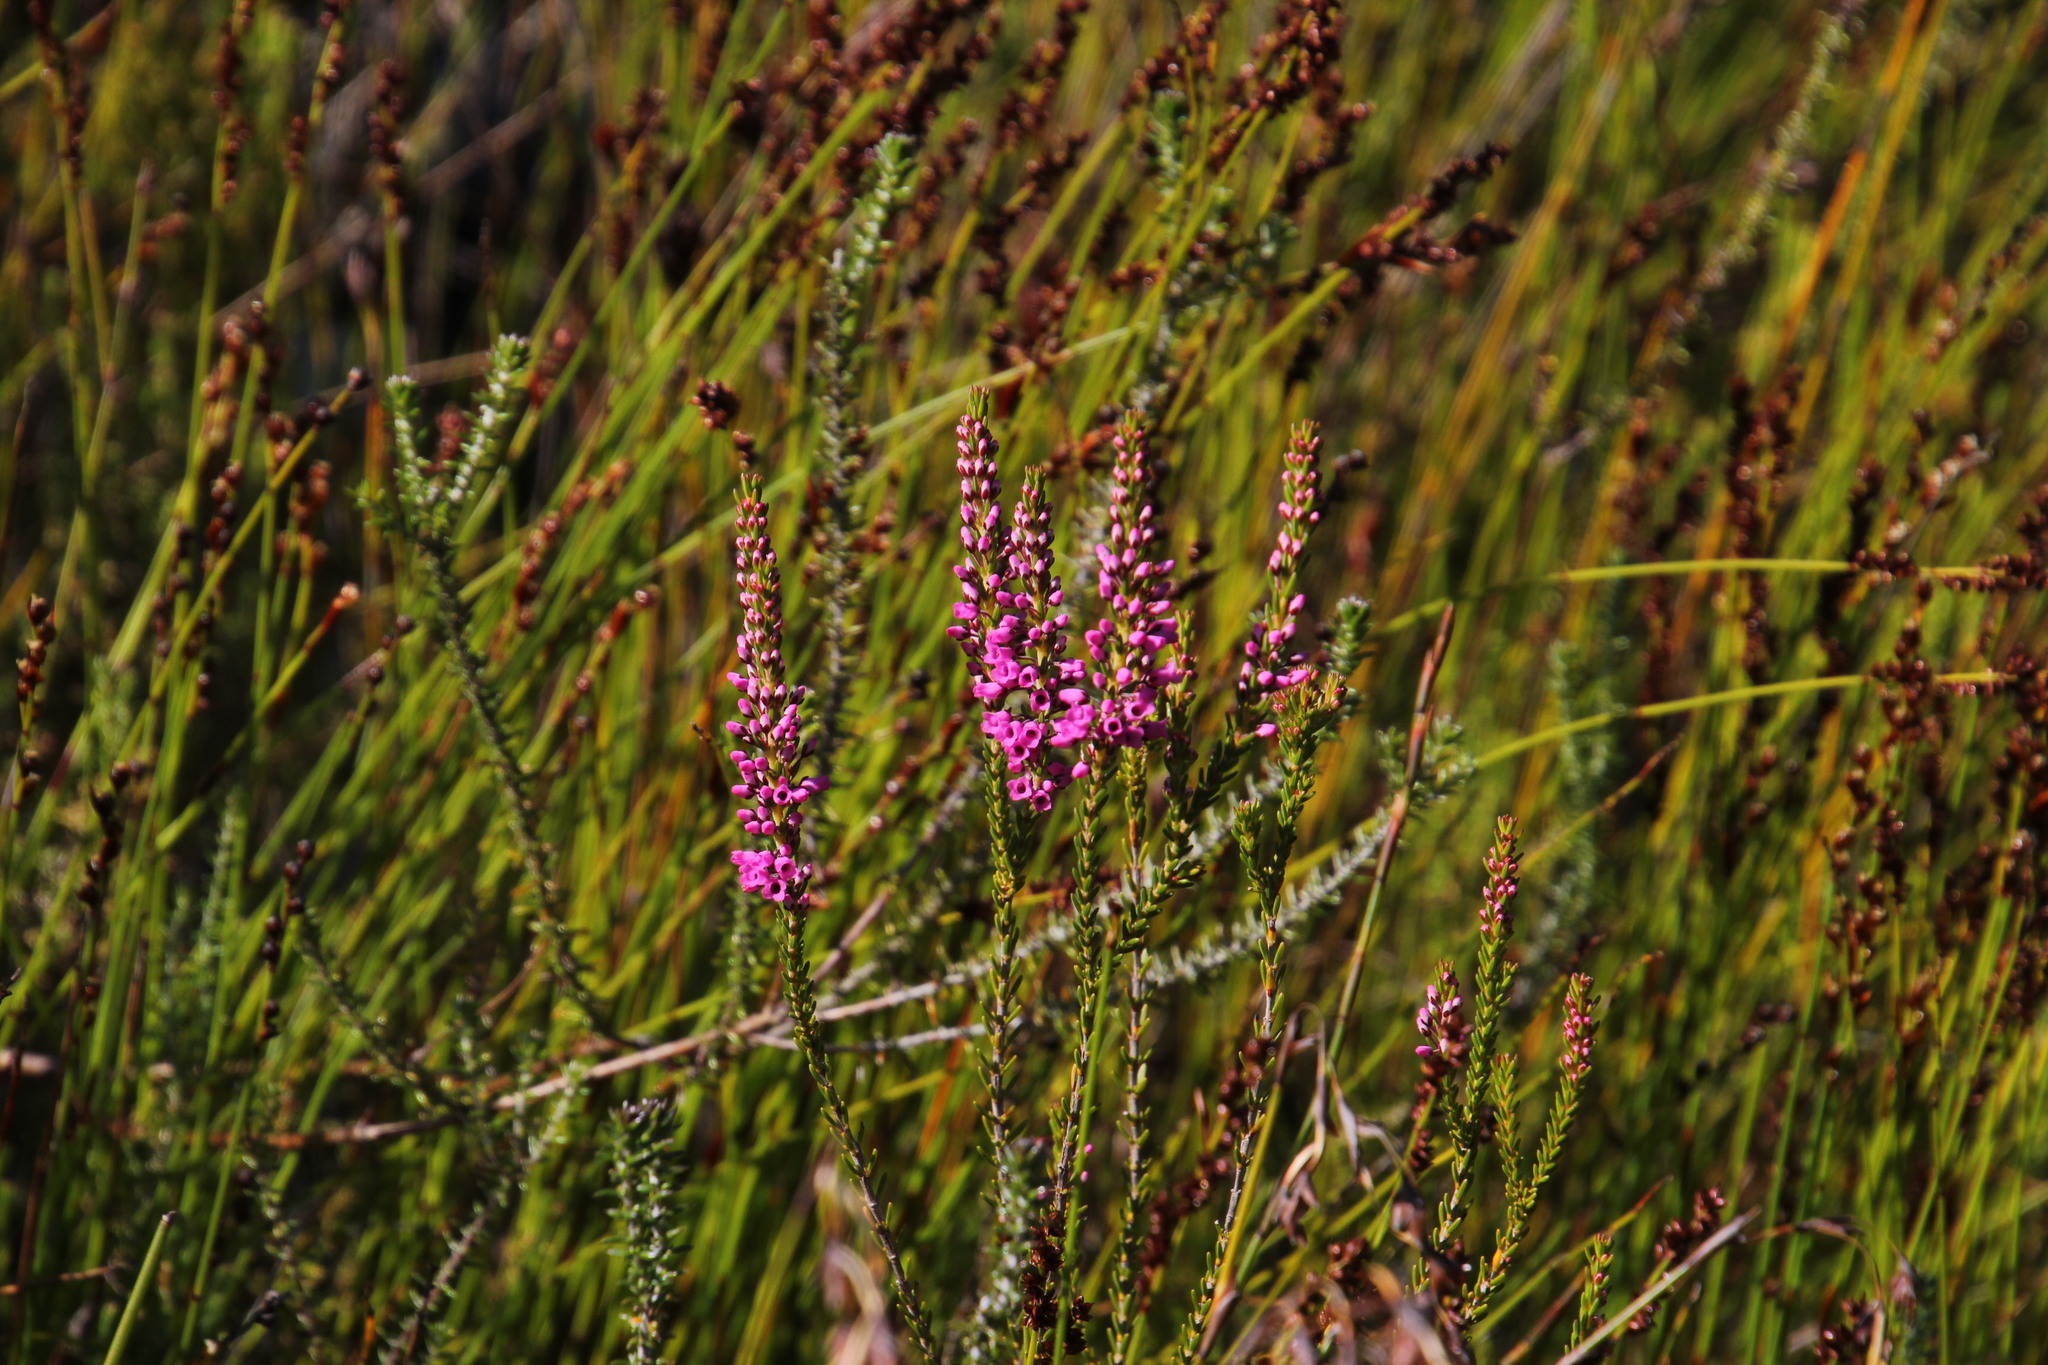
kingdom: Plantae
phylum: Tracheophyta
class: Magnoliopsida
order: Ericales
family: Ericaceae
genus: Erica
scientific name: Erica pulchella
